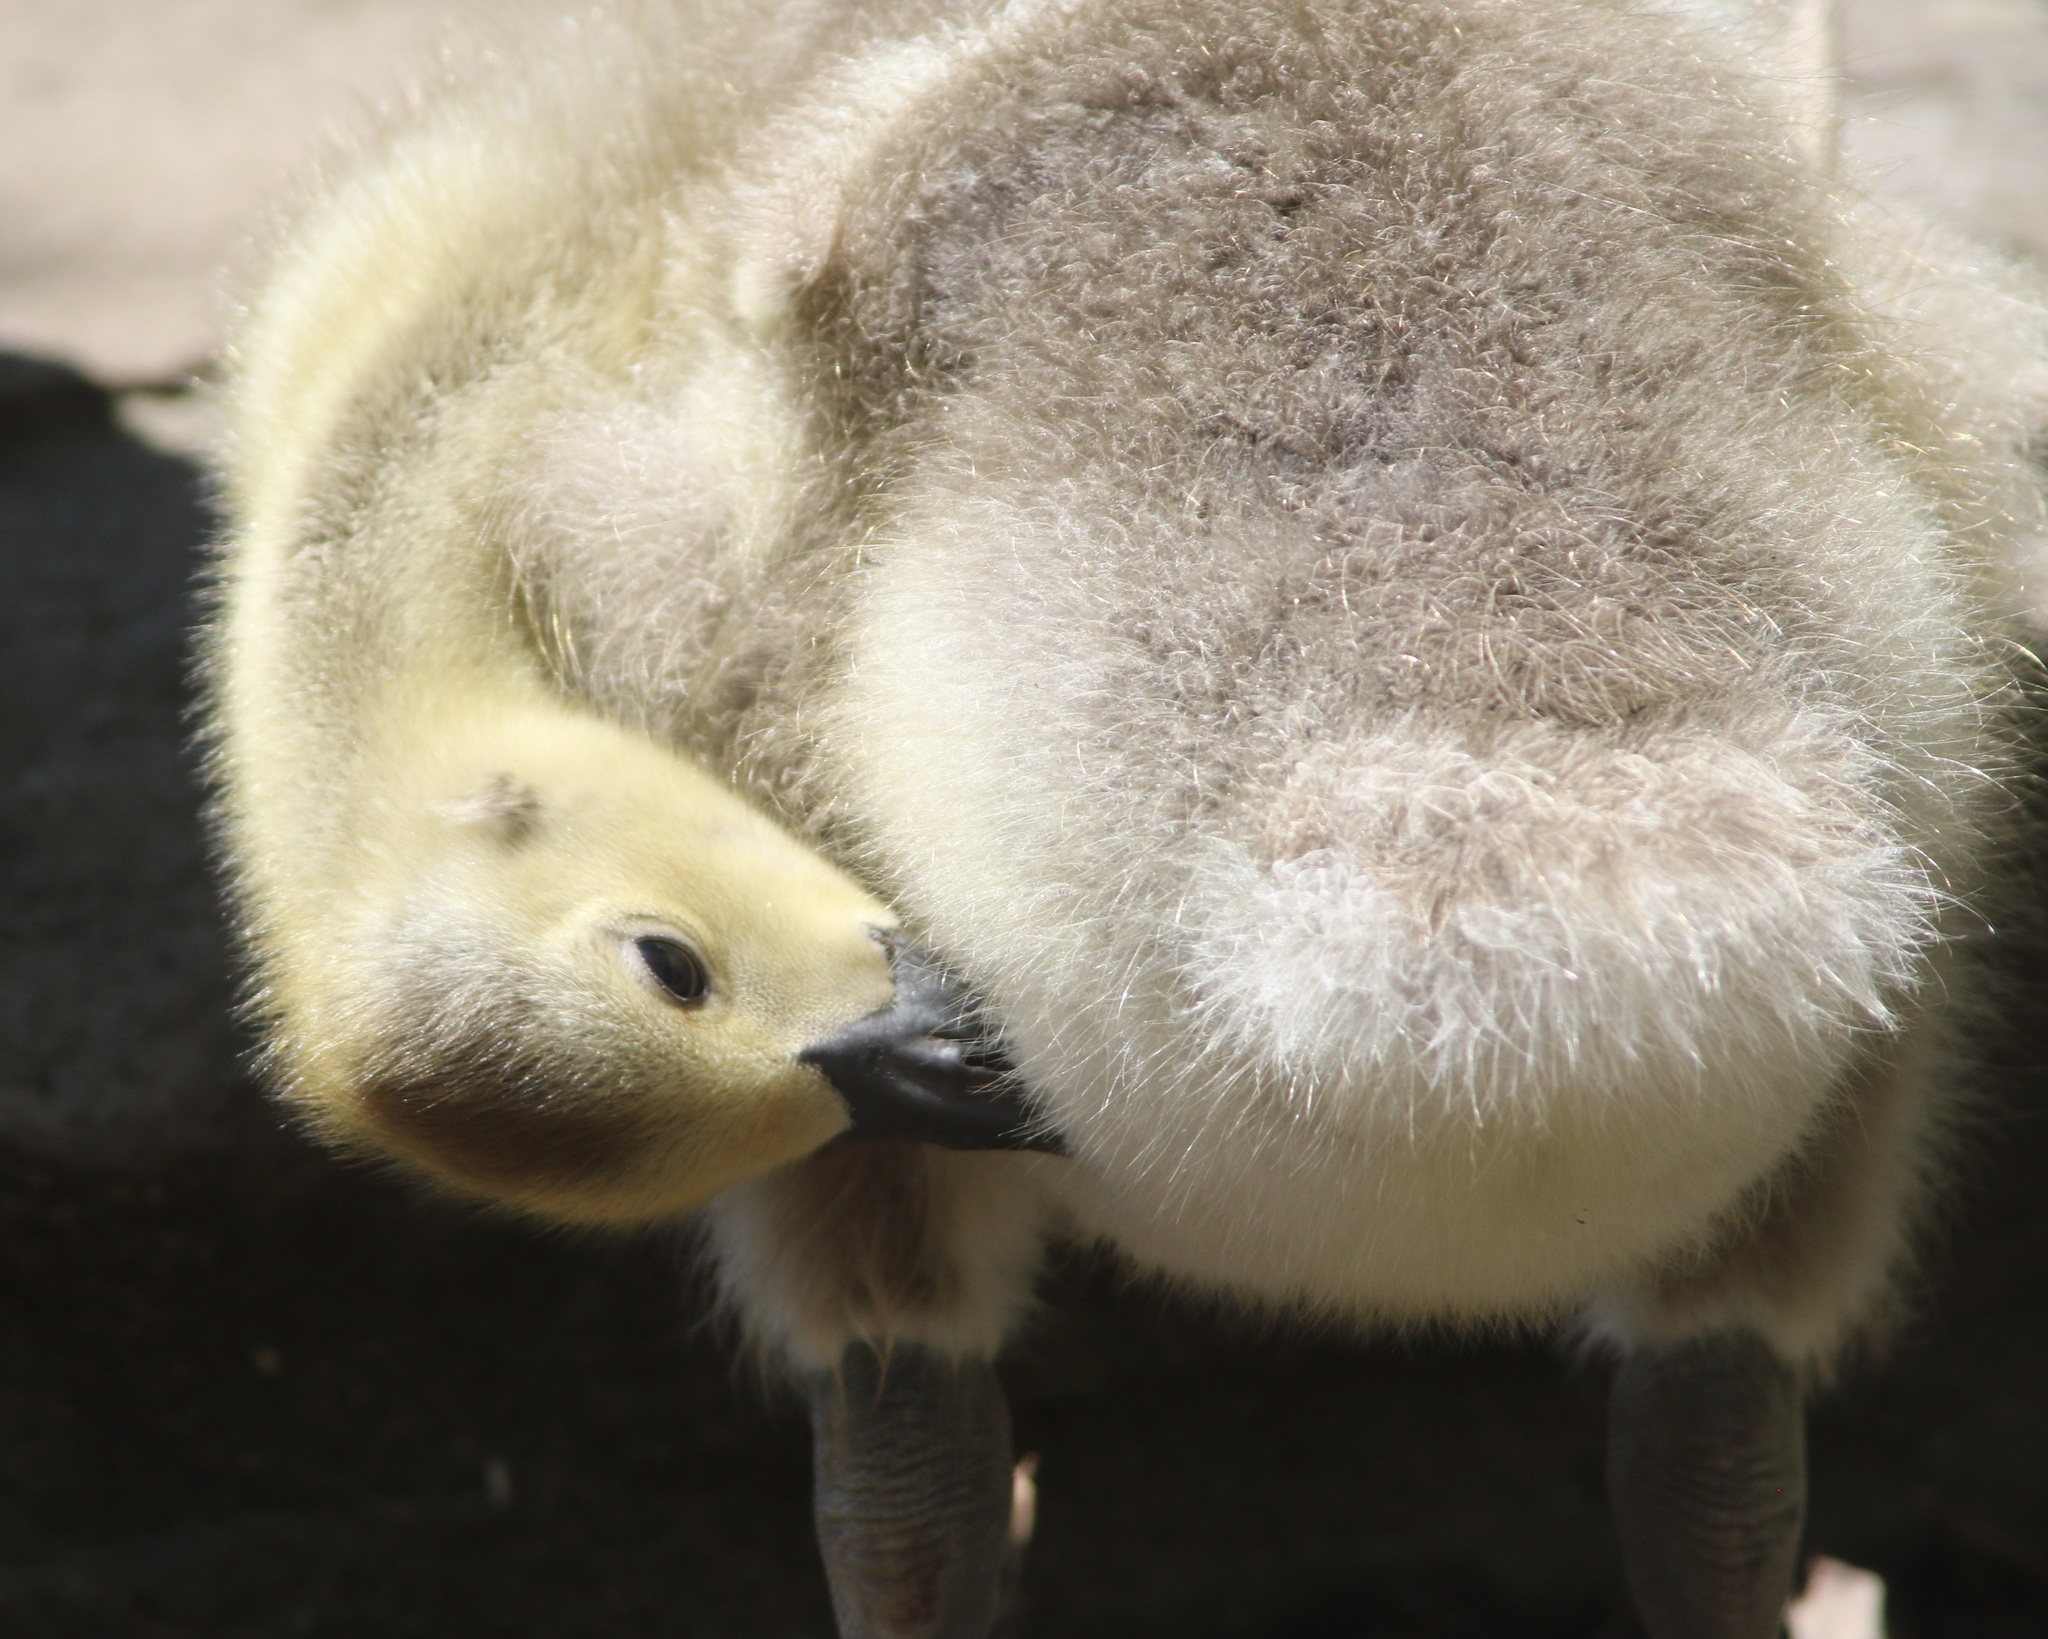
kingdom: Animalia
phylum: Chordata
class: Aves
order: Anseriformes
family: Anatidae
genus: Branta
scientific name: Branta canadensis
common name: Canada goose
